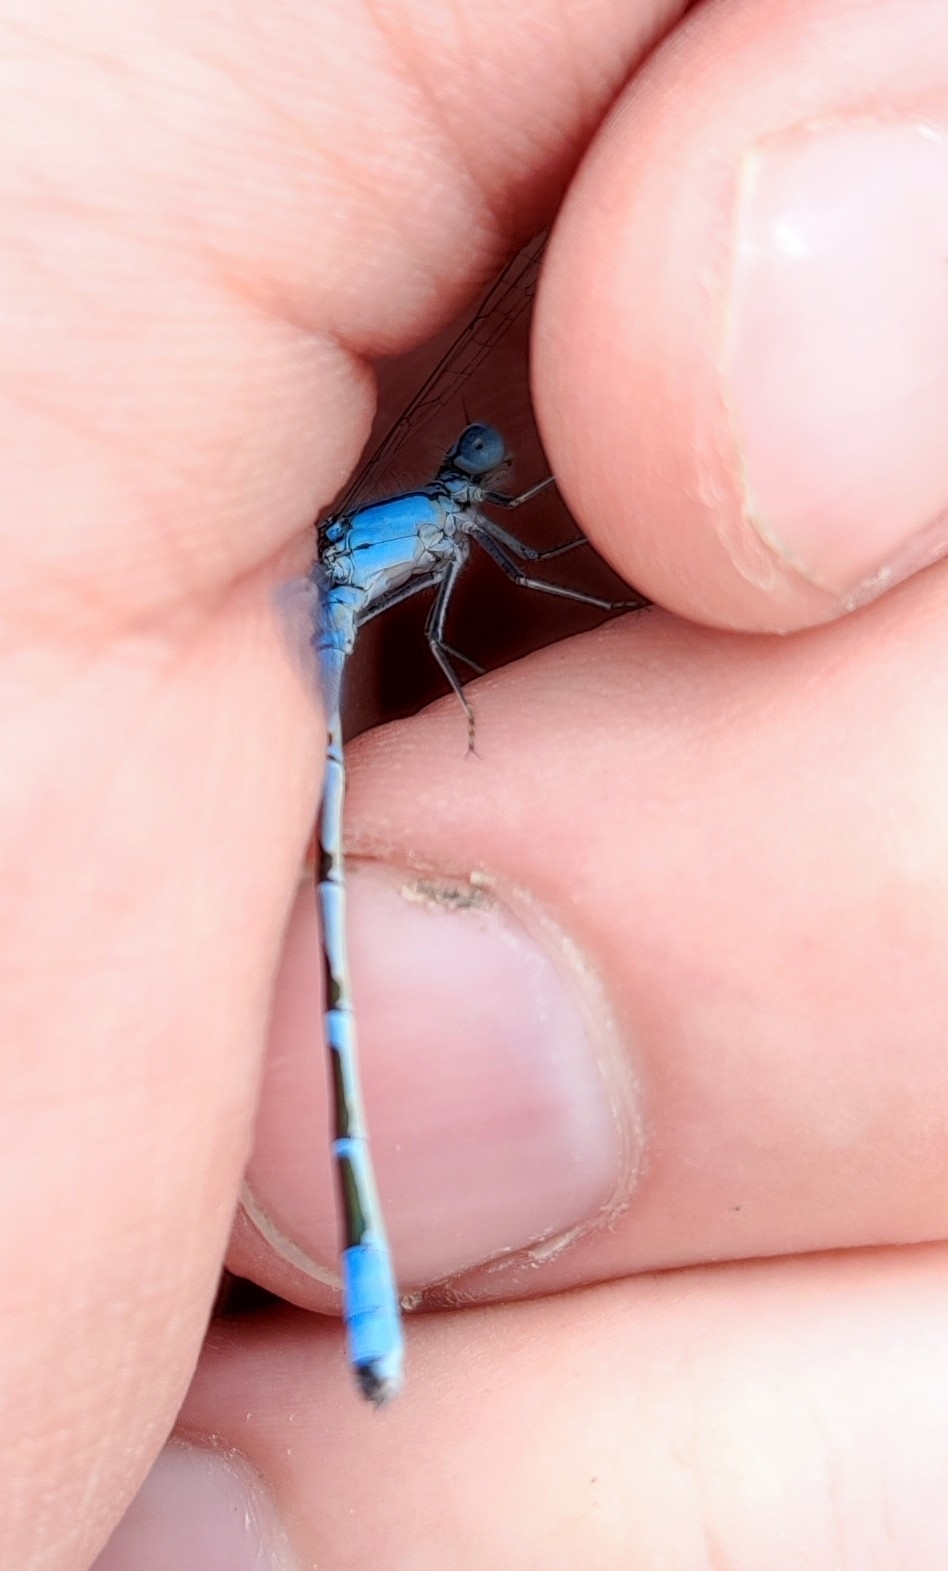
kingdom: Animalia
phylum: Arthropoda
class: Insecta
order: Odonata
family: Coenagrionidae
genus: Enallagma
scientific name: Enallagma cyathigerum
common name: Common blue damselfly
